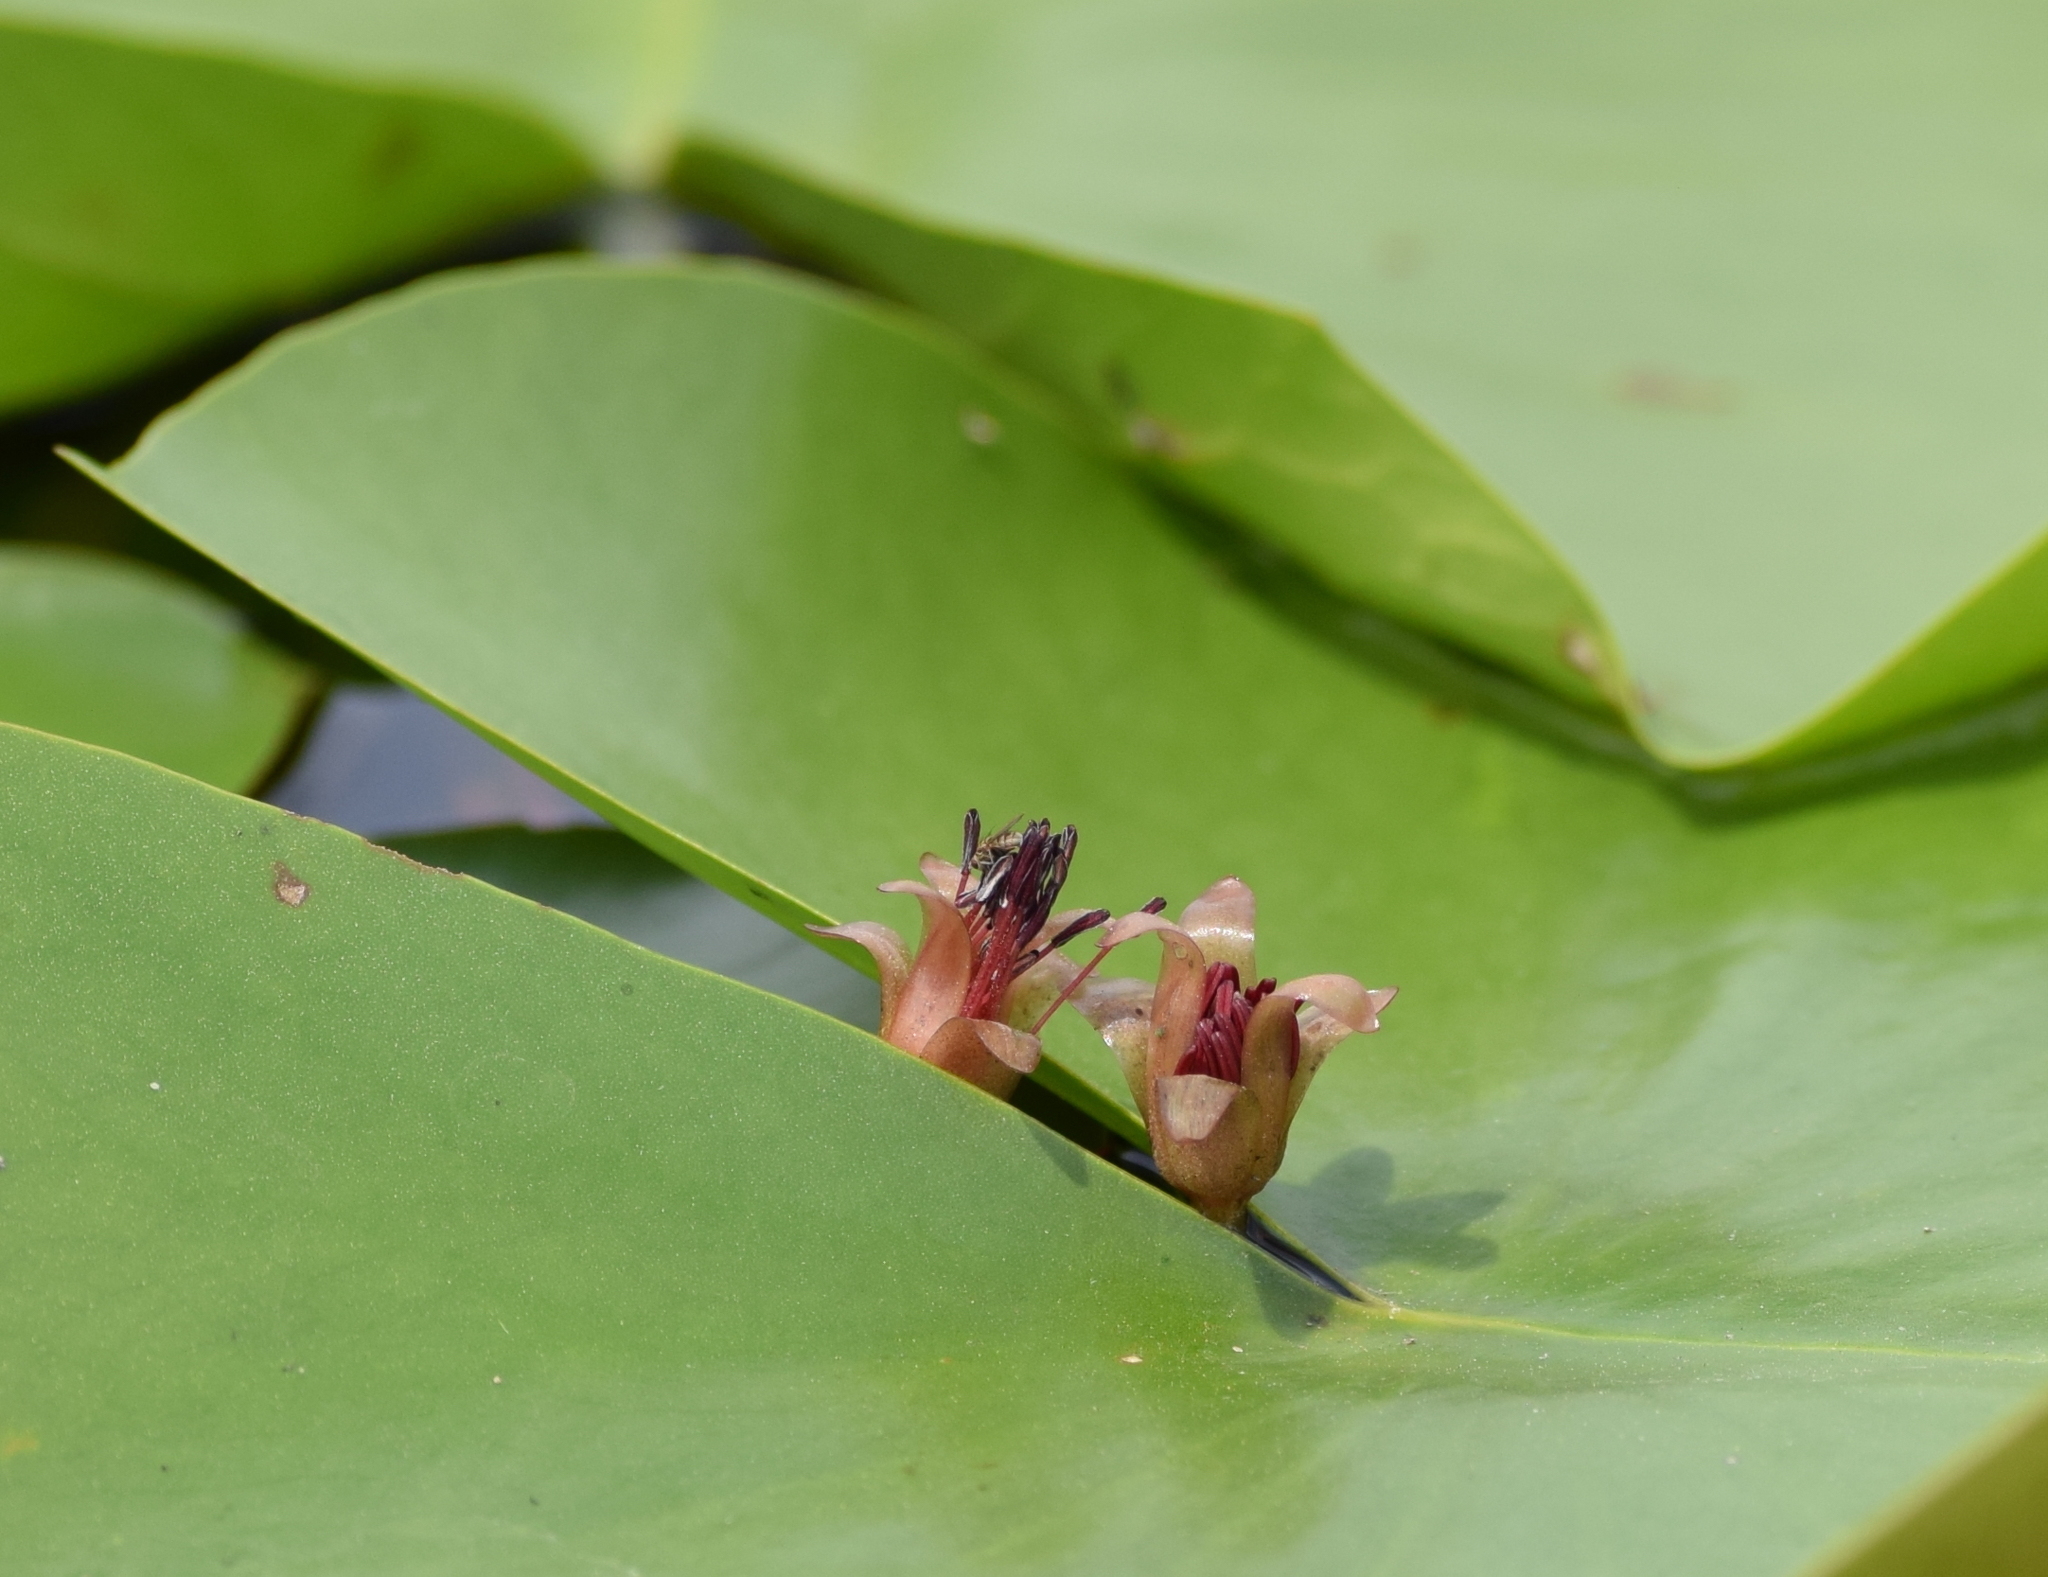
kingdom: Plantae
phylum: Tracheophyta
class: Magnoliopsida
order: Nymphaeales
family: Cabombaceae
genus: Brasenia
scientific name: Brasenia schreberi
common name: Water-shield
